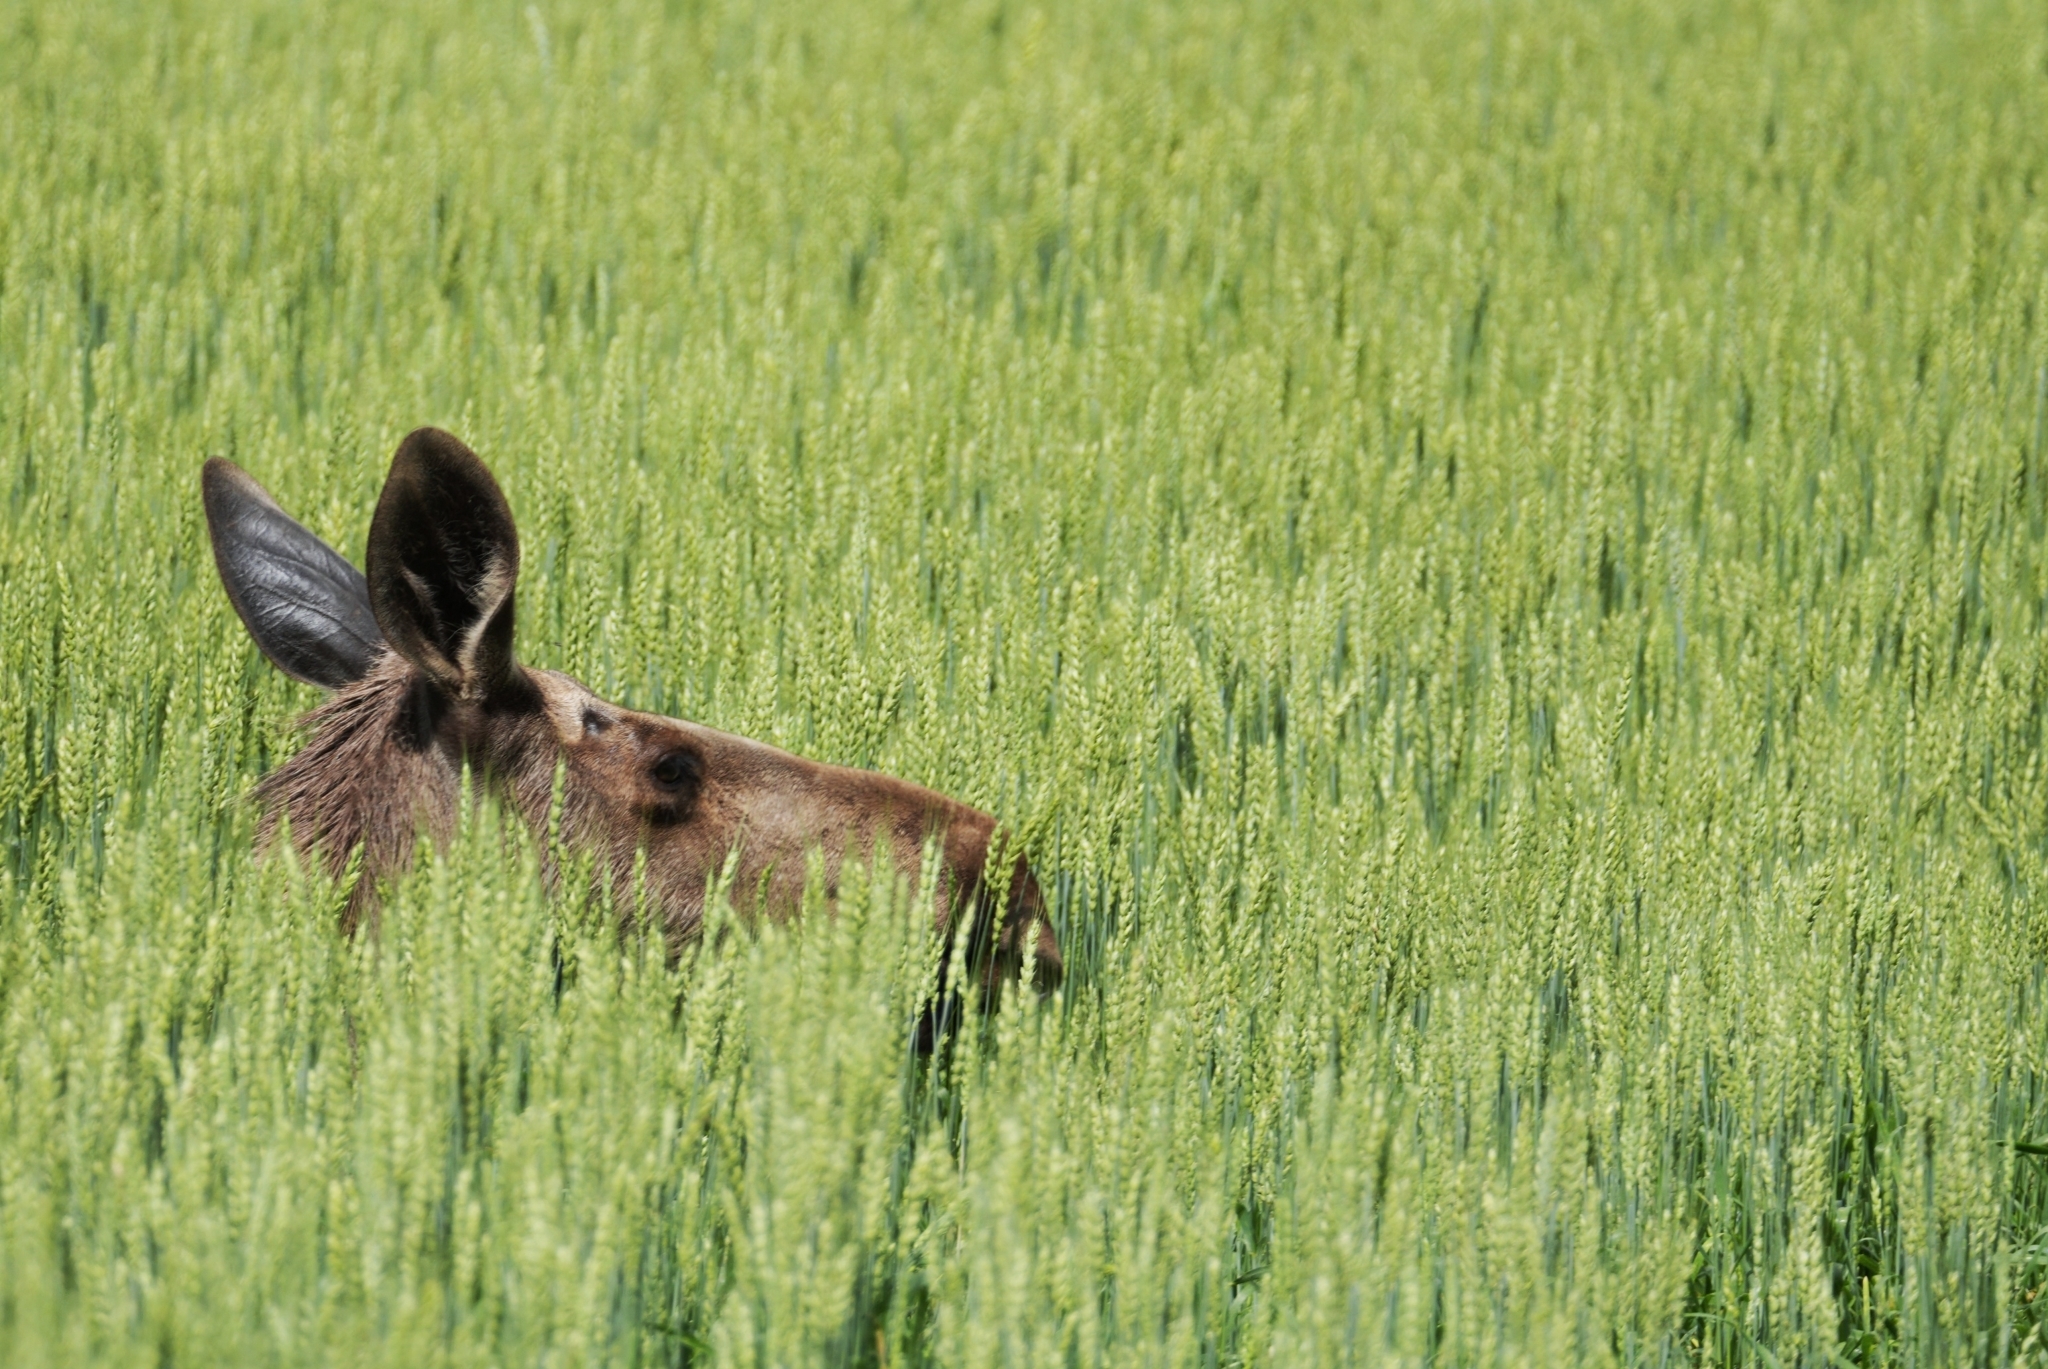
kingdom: Animalia
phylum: Chordata
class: Mammalia
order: Artiodactyla
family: Cervidae
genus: Alces
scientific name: Alces alces
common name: Moose
